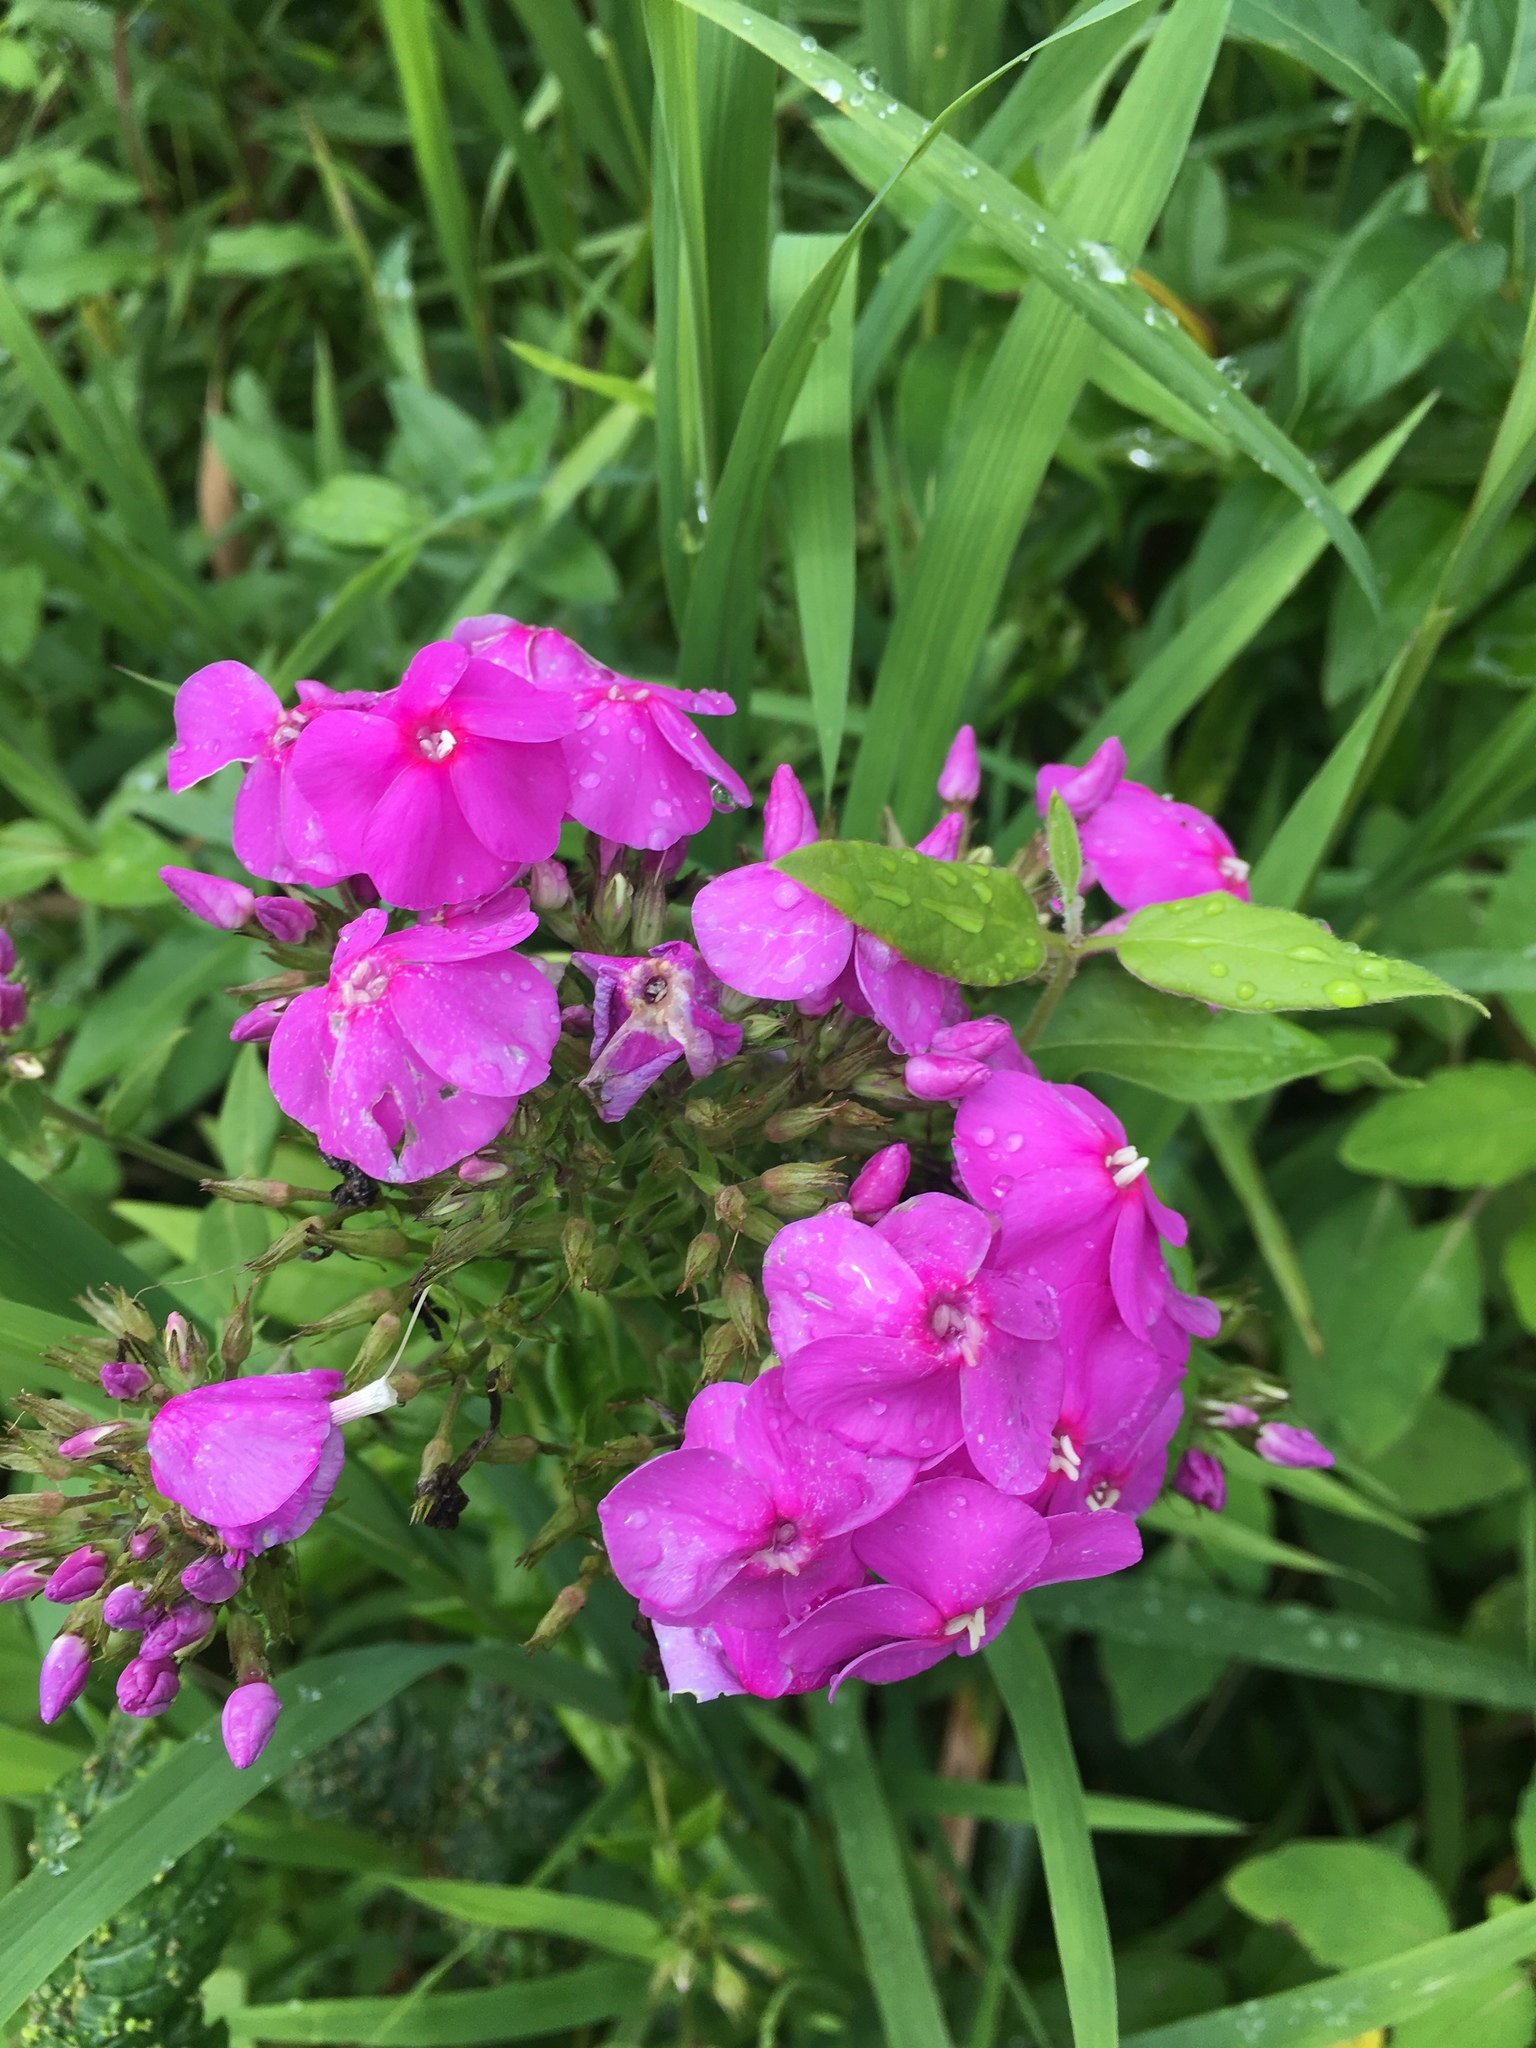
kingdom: Plantae
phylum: Tracheophyta
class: Magnoliopsida
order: Ericales
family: Polemoniaceae
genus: Phlox
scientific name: Phlox paniculata
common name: Fall phlox
